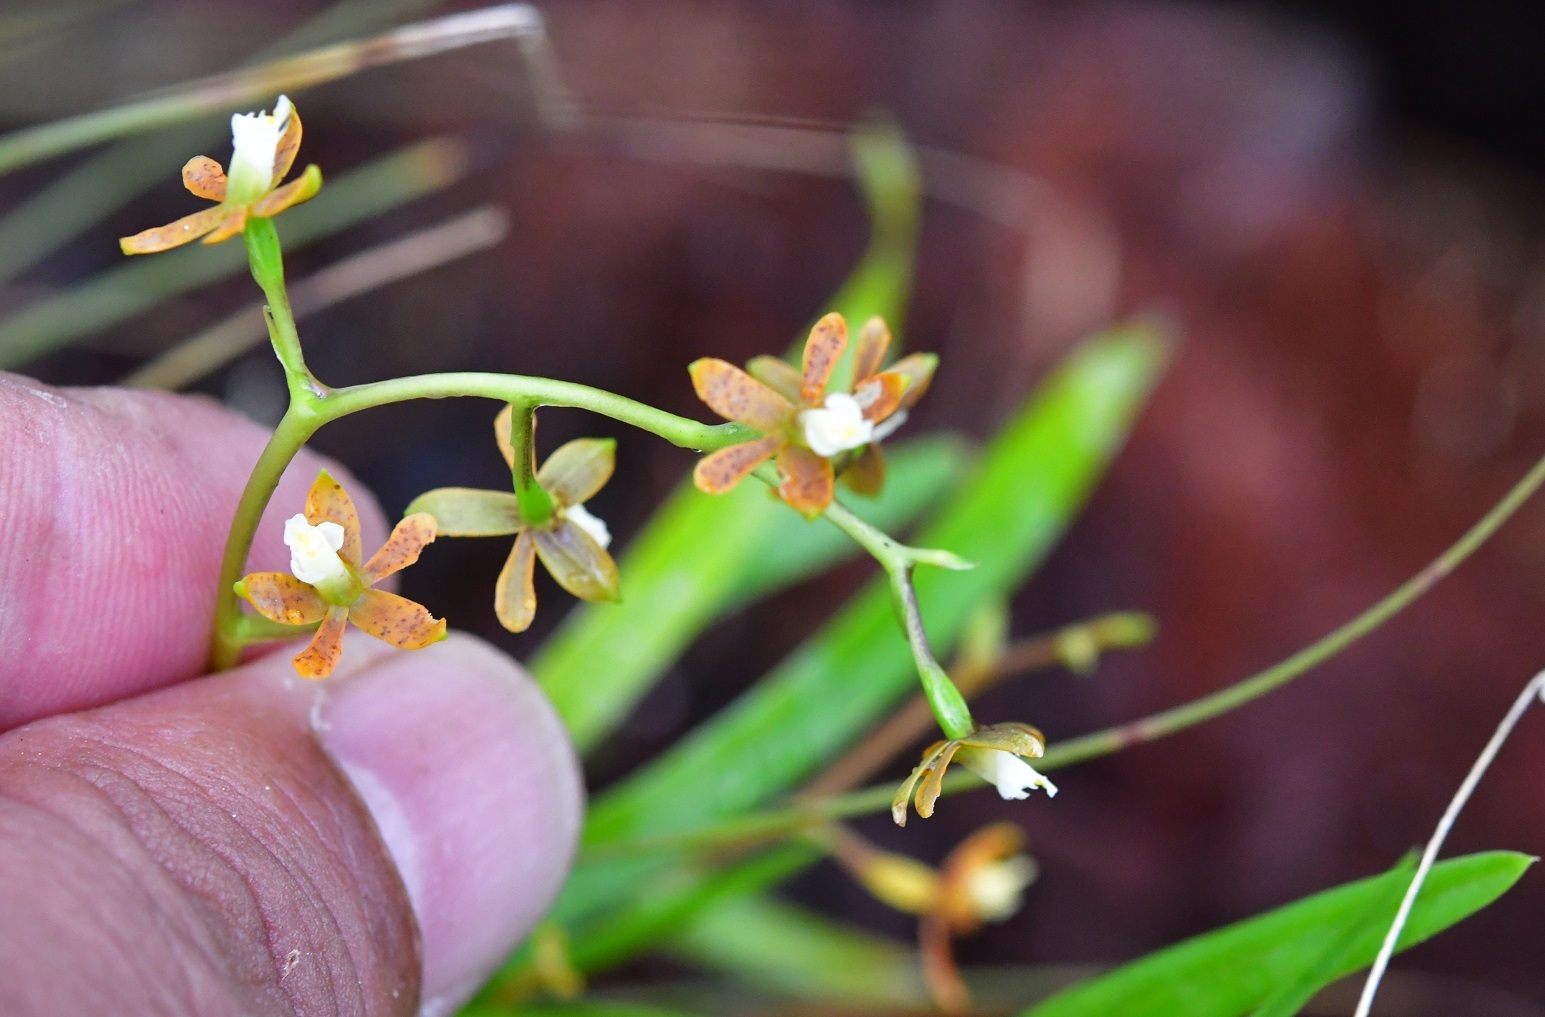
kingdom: Plantae
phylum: Tracheophyta
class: Liliopsida
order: Asparagales
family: Orchidaceae
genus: Prosthechea
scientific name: Prosthechea ochracea
